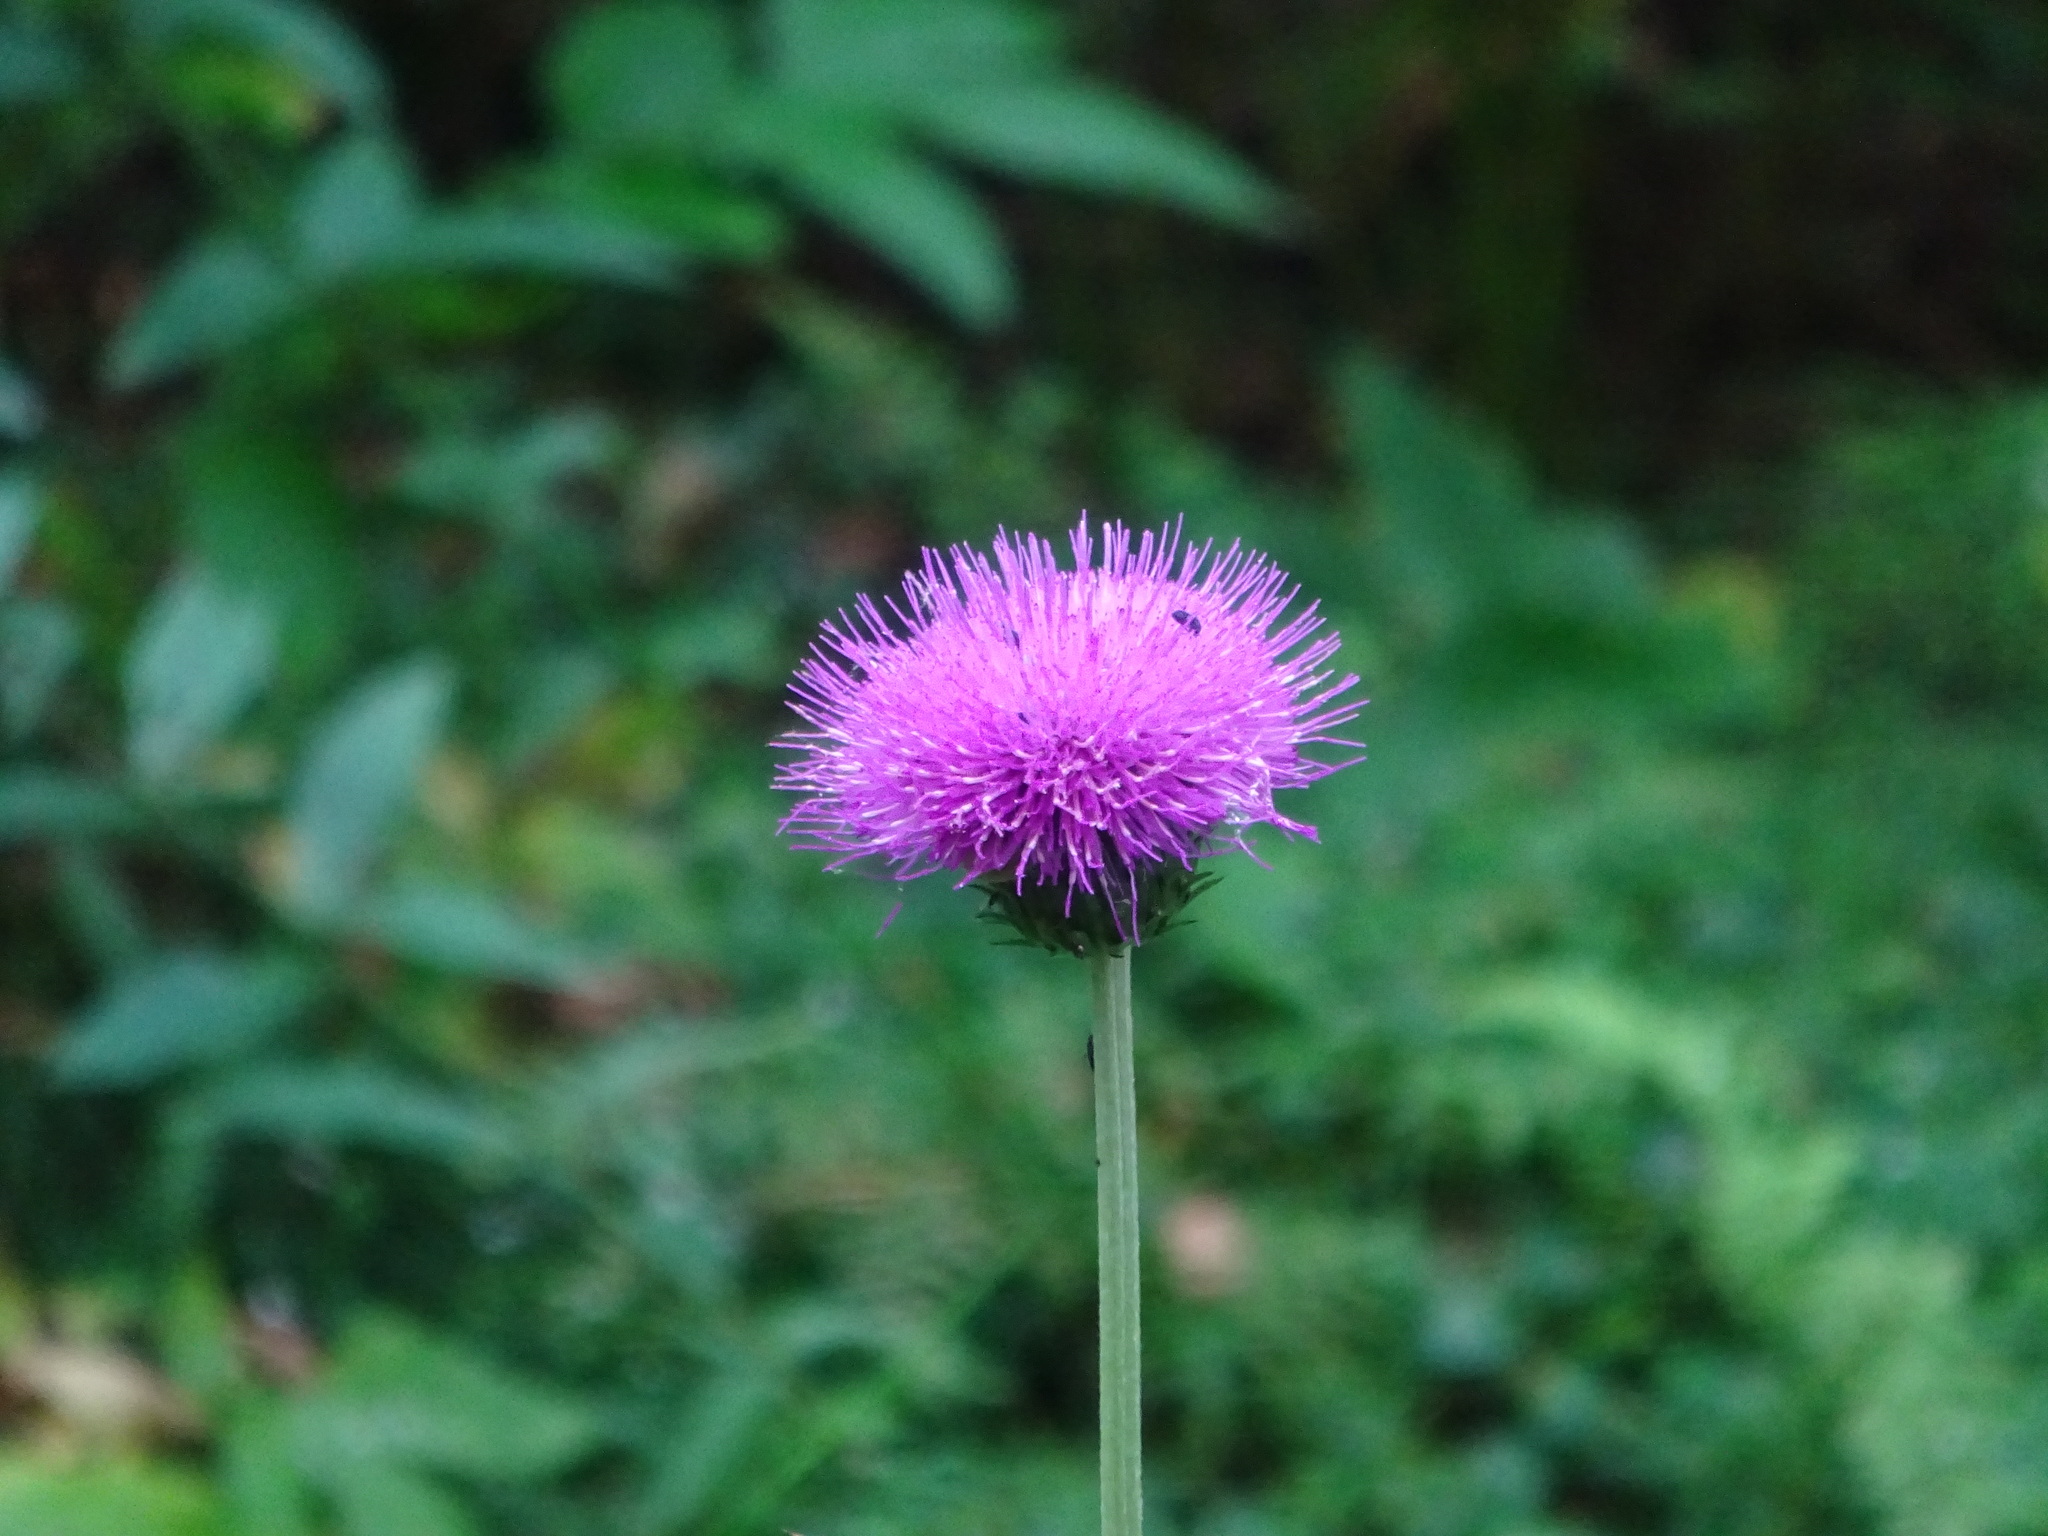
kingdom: Plantae
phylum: Tracheophyta
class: Magnoliopsida
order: Asterales
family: Asteraceae
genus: Cirsium
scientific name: Cirsium heterophyllum
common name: Melancholy thistle
